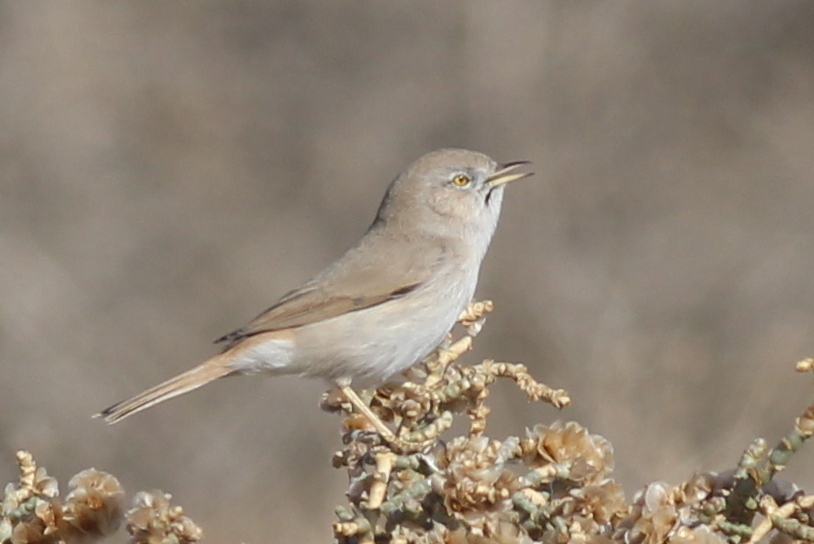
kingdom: Animalia
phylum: Chordata
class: Aves
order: Passeriformes
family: Sylviidae
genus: Sylvia
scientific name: Sylvia nana
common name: Asian desert warbler
